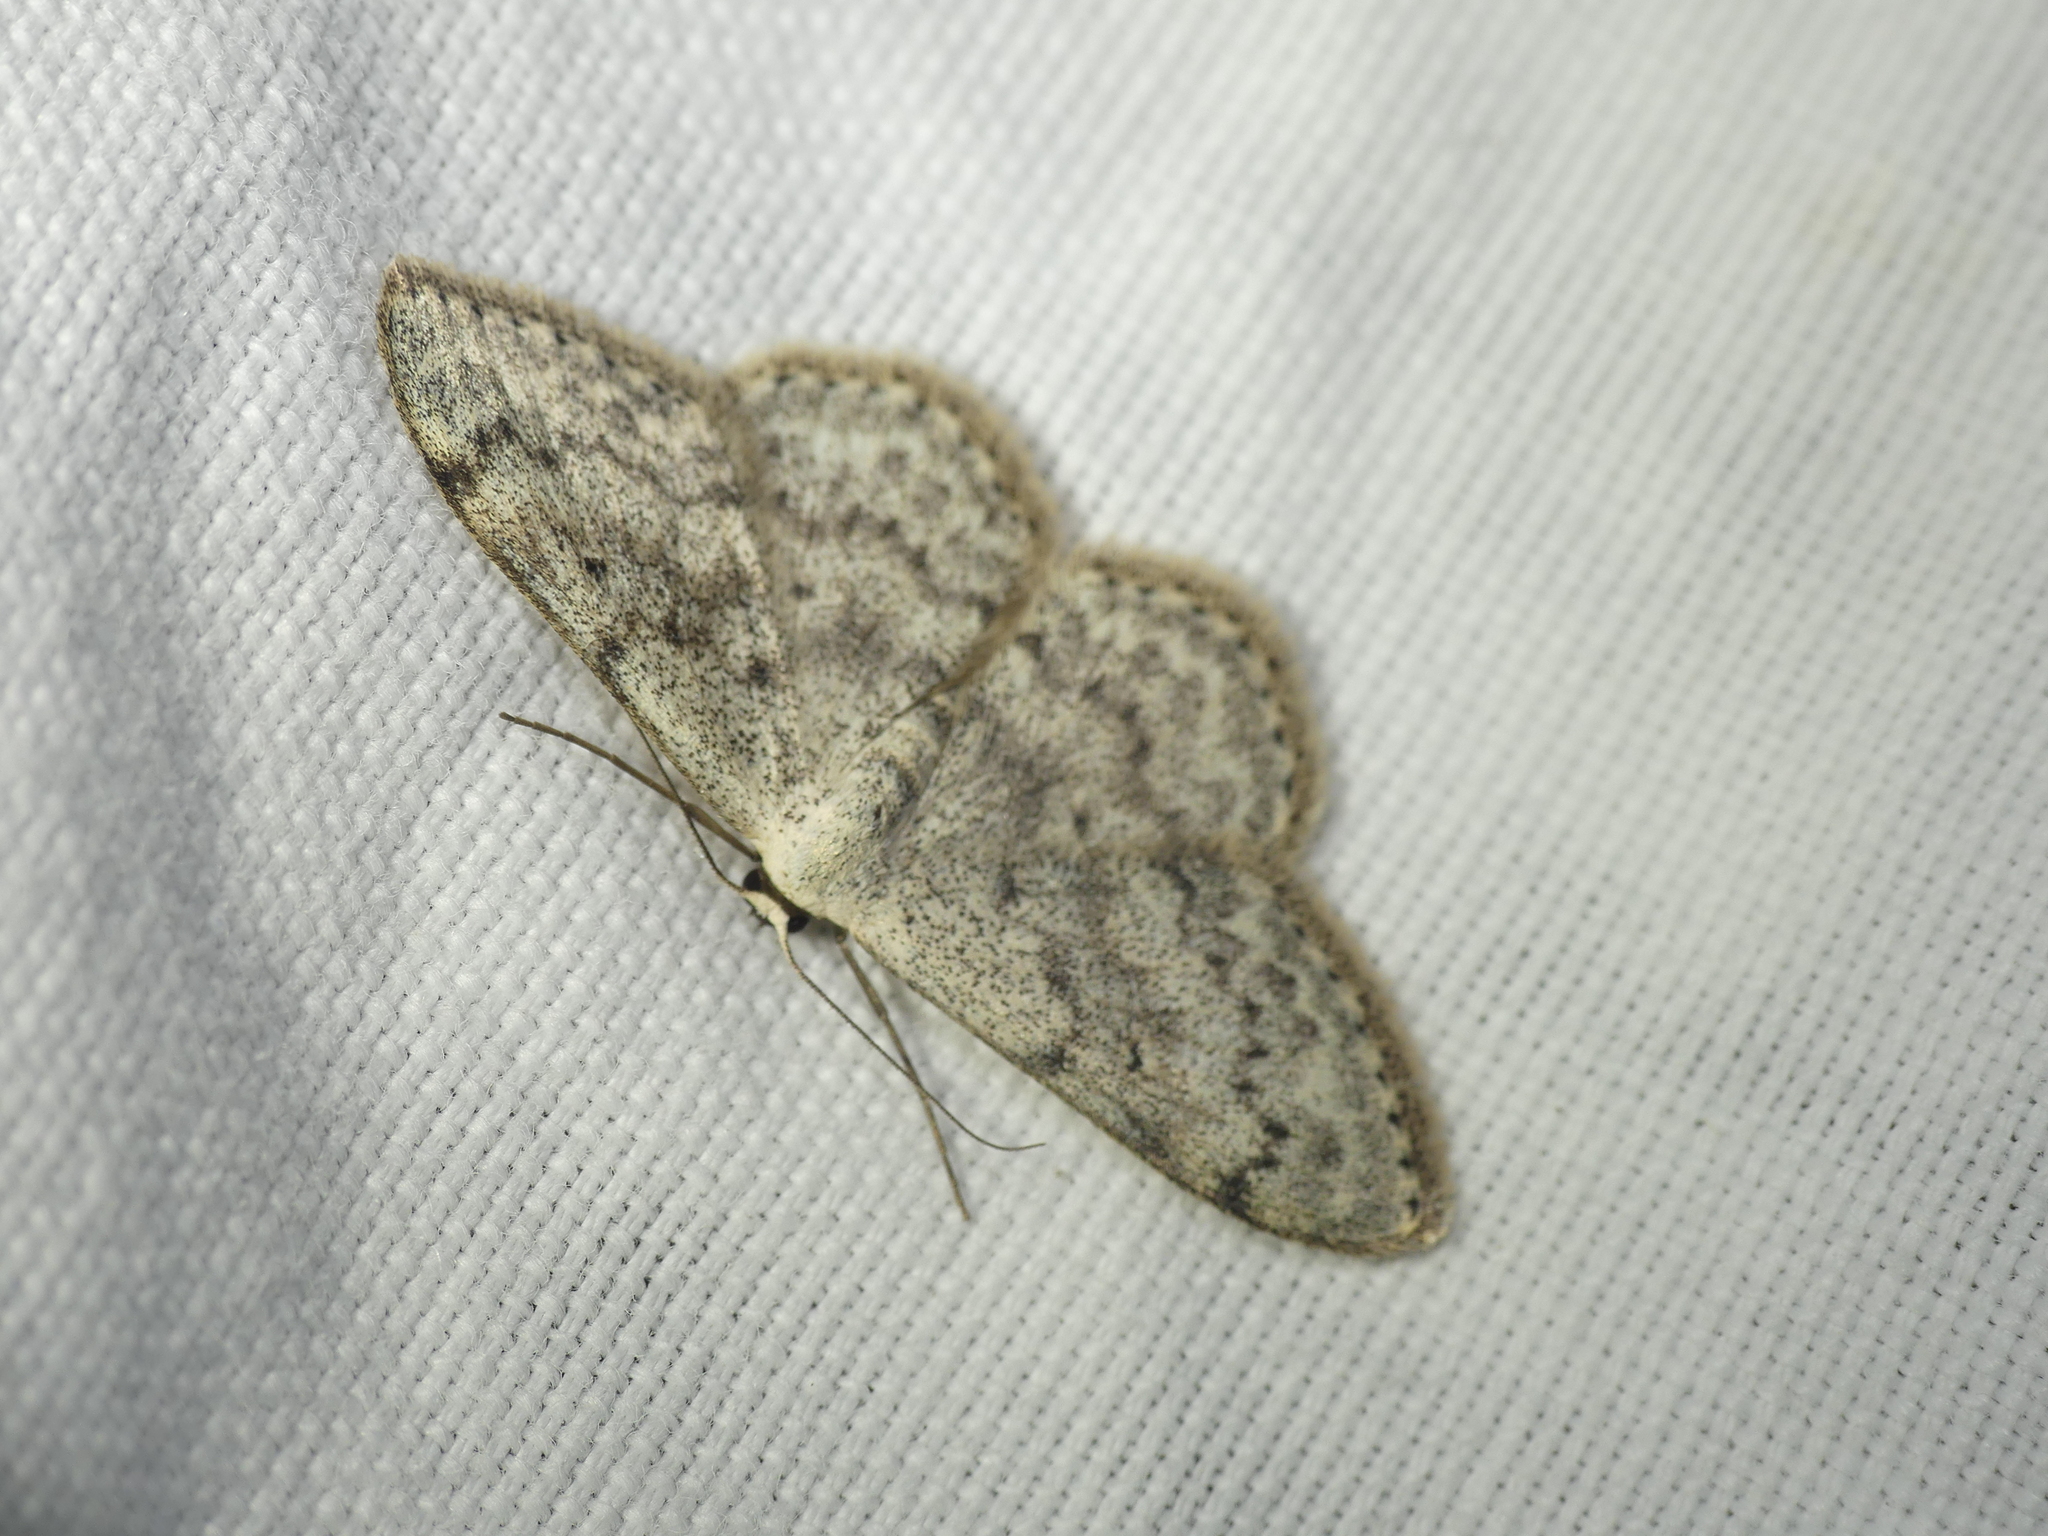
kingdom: Animalia
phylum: Arthropoda
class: Insecta
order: Lepidoptera
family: Geometridae
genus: Scopula
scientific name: Scopula marginepunctata
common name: Mullein wave
